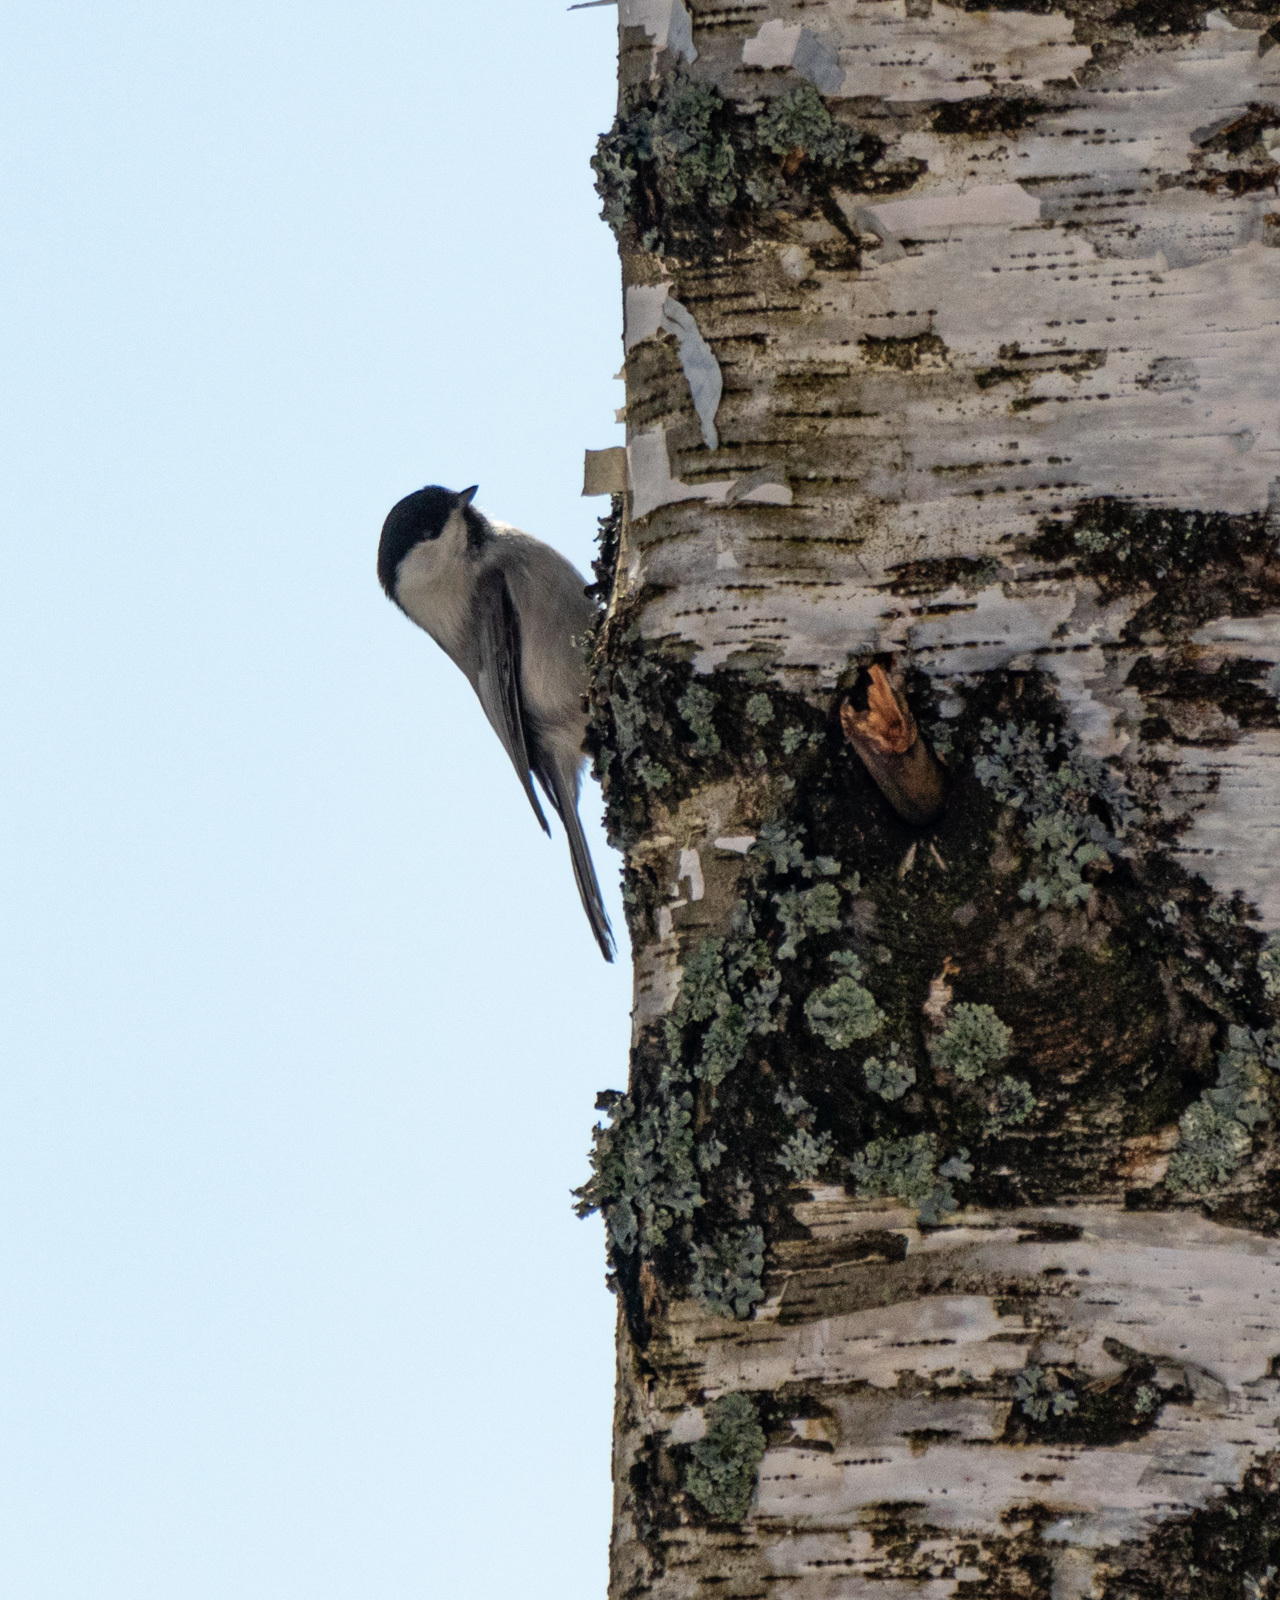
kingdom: Animalia
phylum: Chordata
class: Aves
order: Passeriformes
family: Paridae
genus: Poecile
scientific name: Poecile montanus
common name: Willow tit
